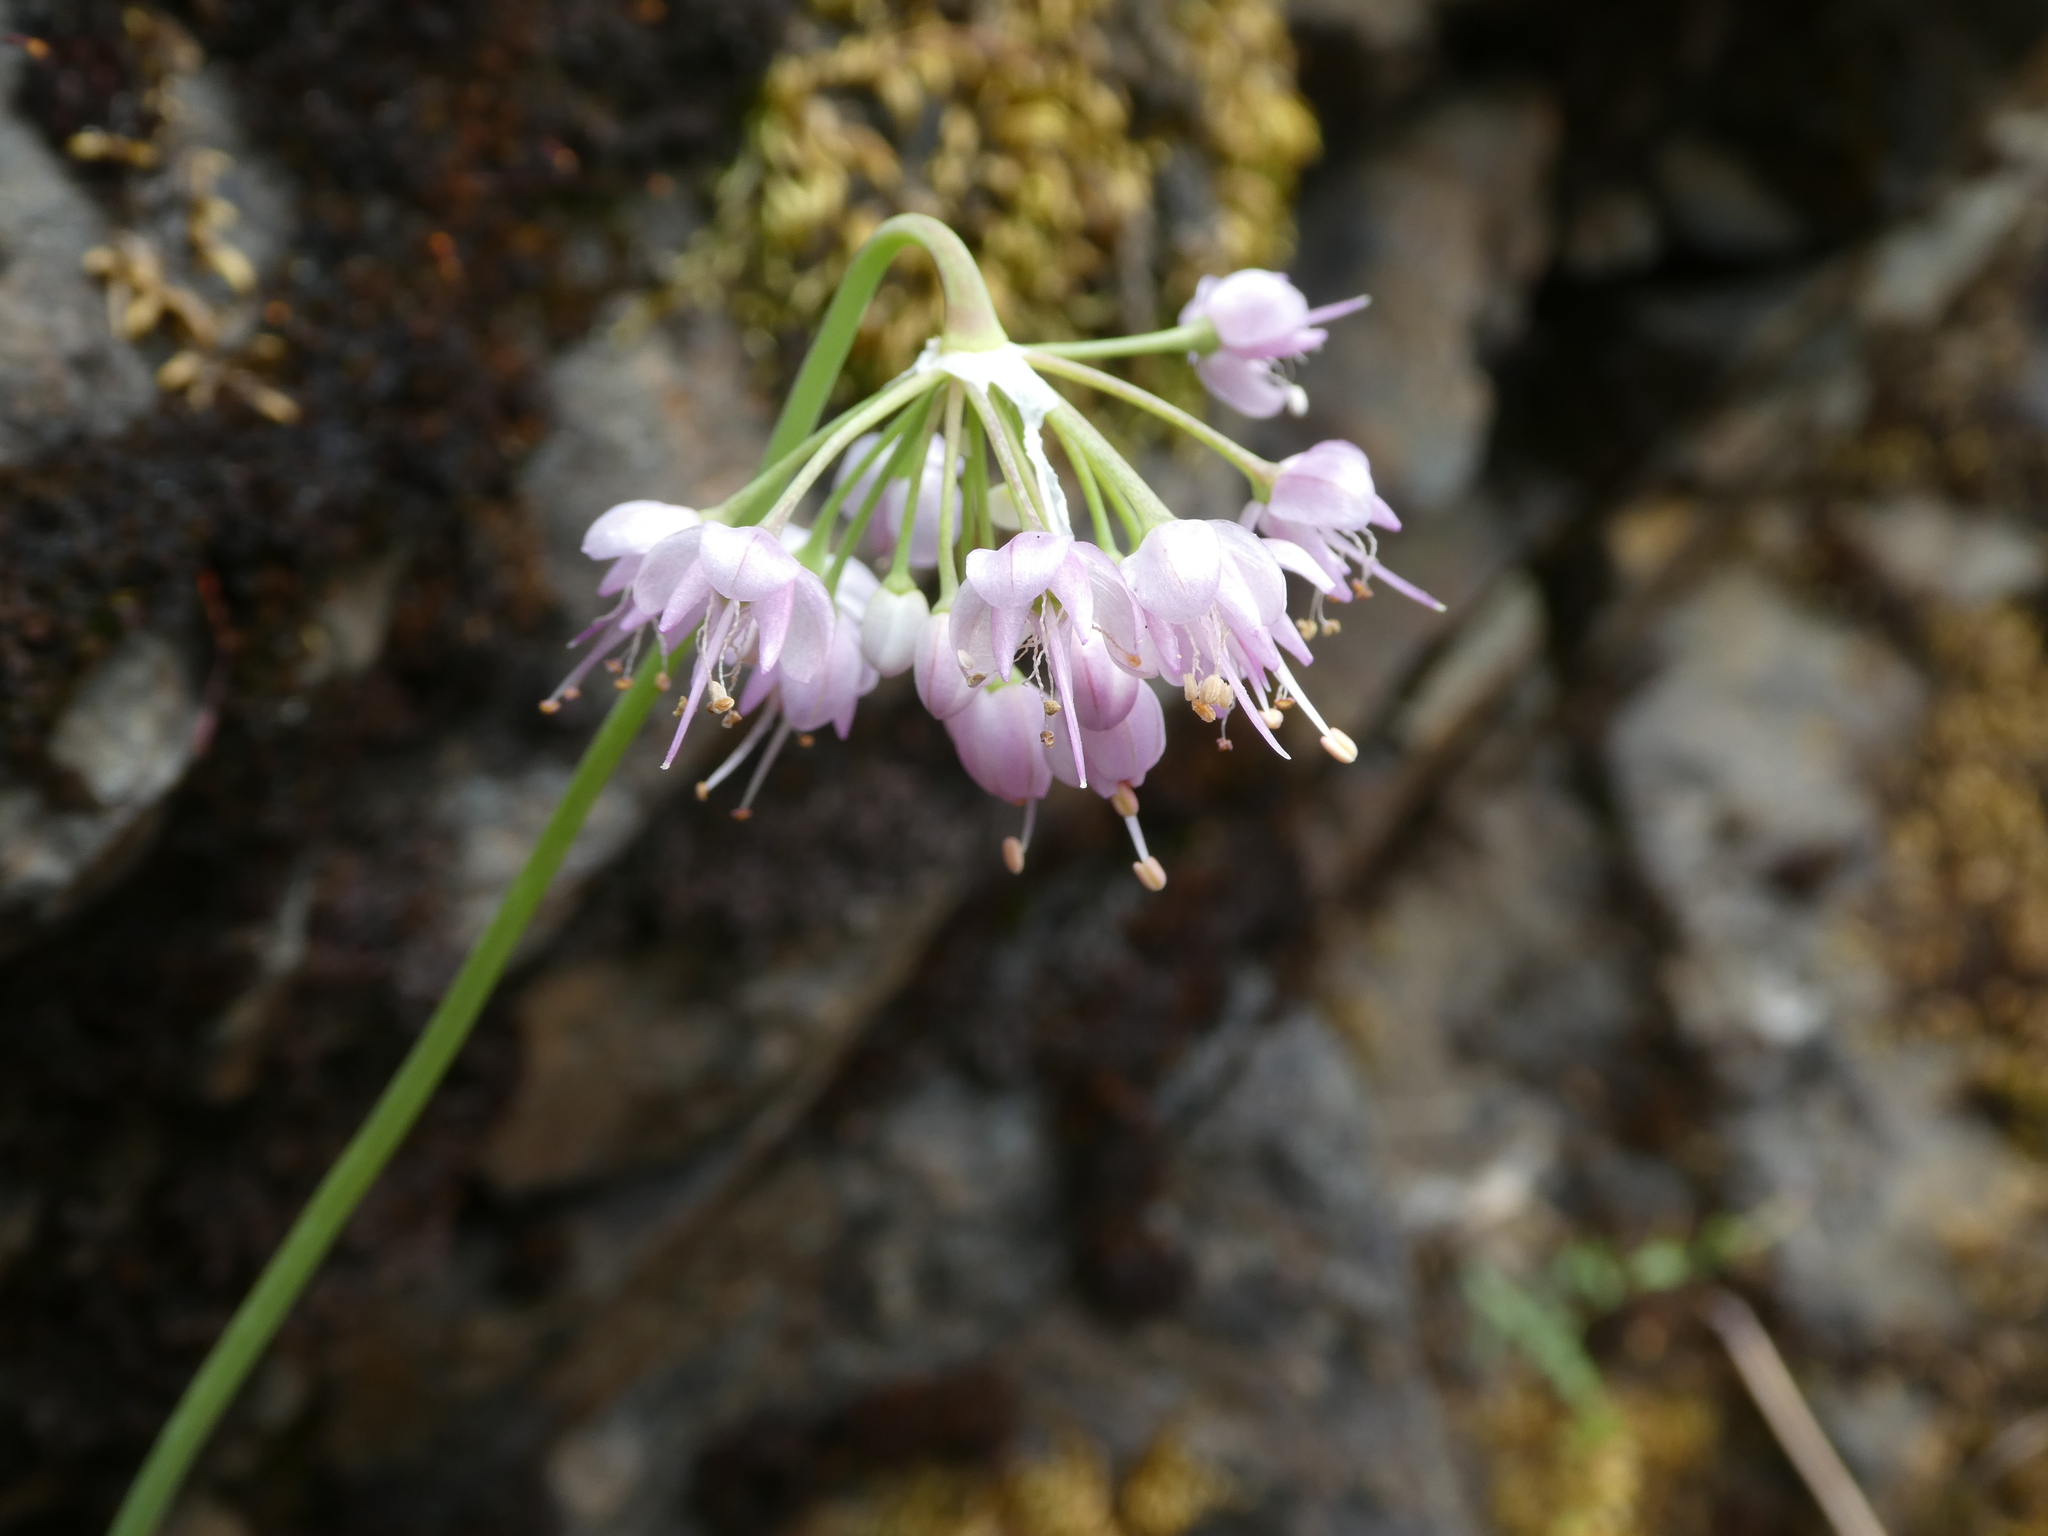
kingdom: Plantae
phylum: Tracheophyta
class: Liliopsida
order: Asparagales
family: Amaryllidaceae
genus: Allium
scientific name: Allium cernuum
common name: Nodding onion
